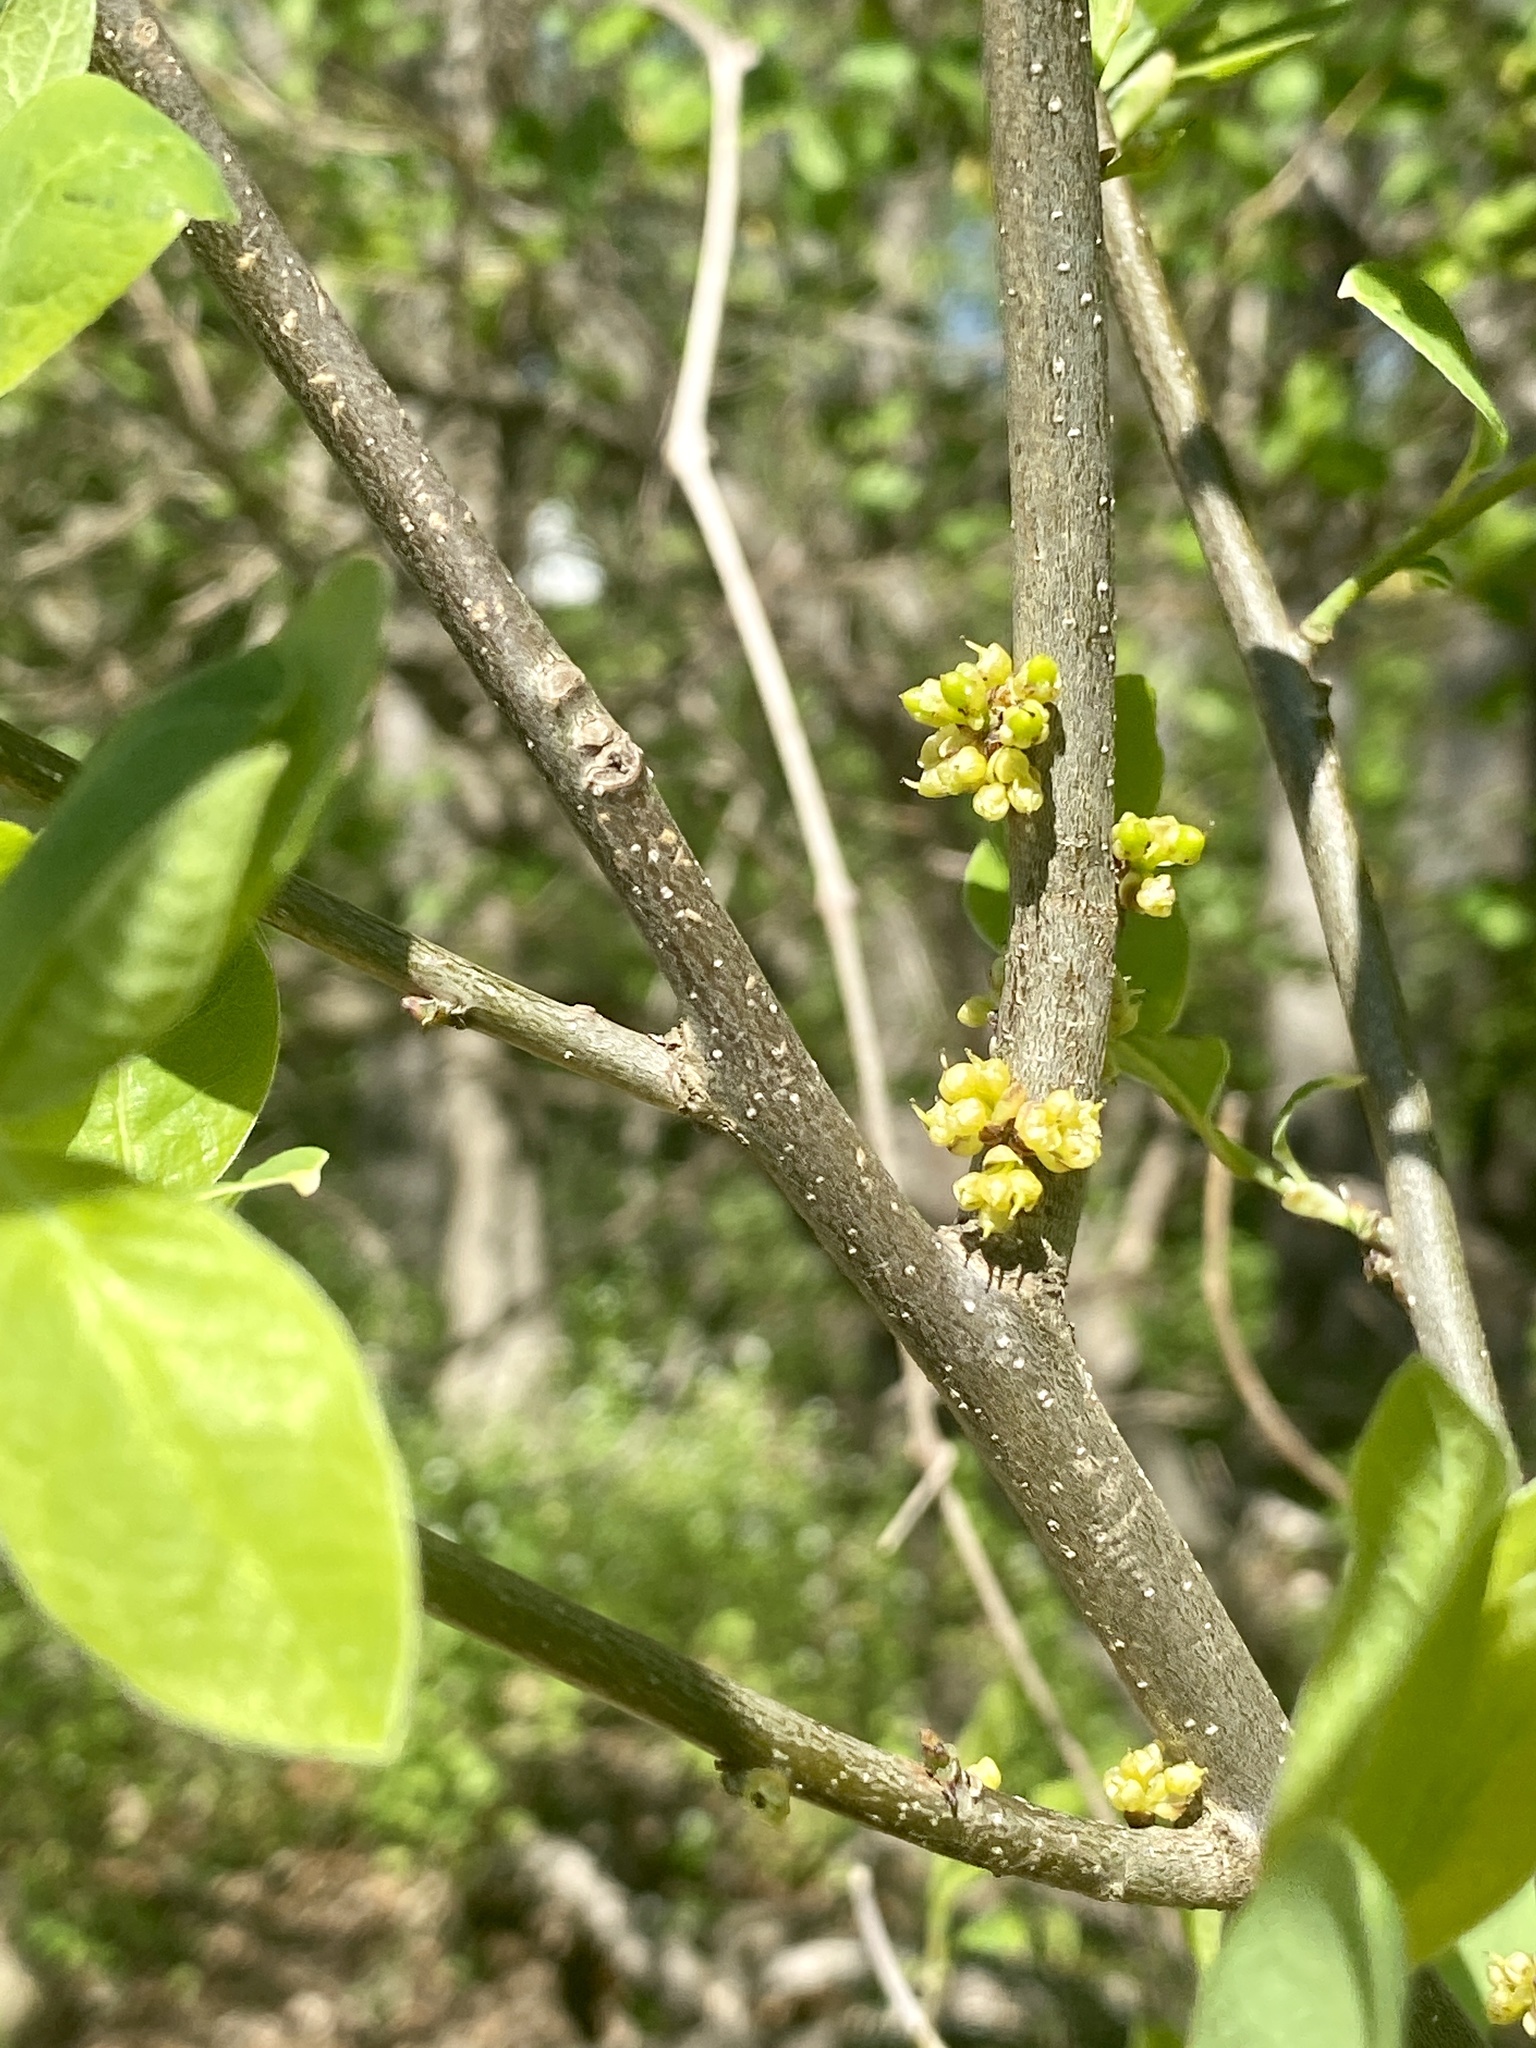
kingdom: Plantae
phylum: Tracheophyta
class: Magnoliopsida
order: Laurales
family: Lauraceae
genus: Lindera
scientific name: Lindera benzoin
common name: Spicebush
